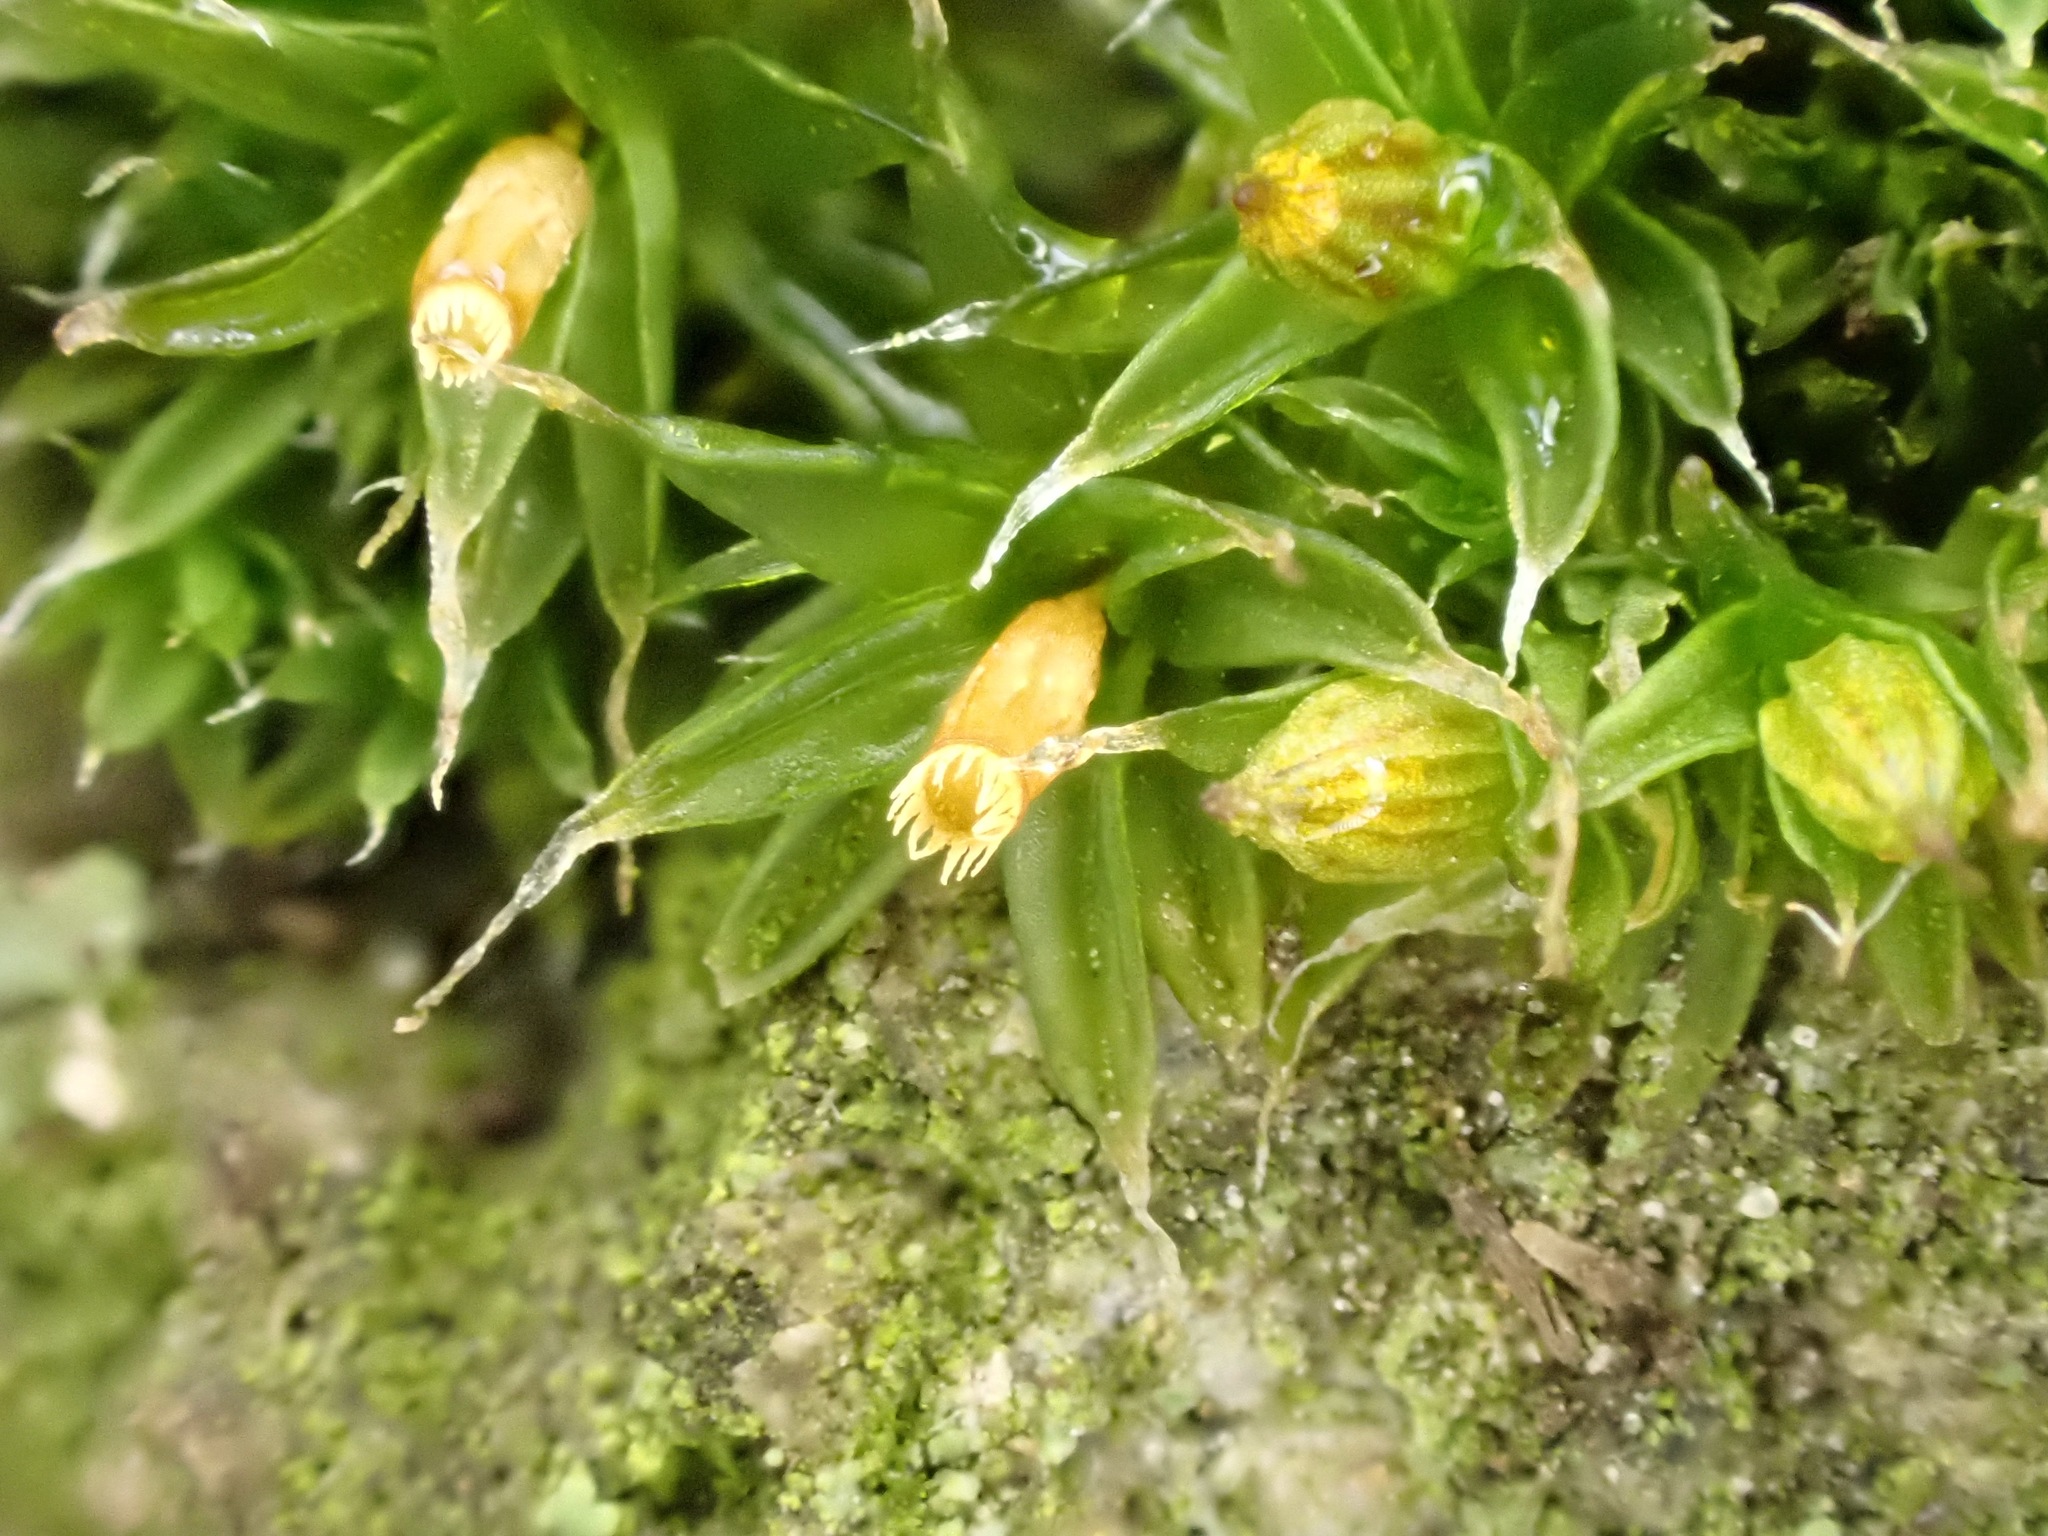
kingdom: Plantae
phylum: Bryophyta
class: Bryopsida
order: Orthotrichales
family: Orthotrichaceae
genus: Orthotrichum
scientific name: Orthotrichum diaphanum
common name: White-tipped bristle-moss
